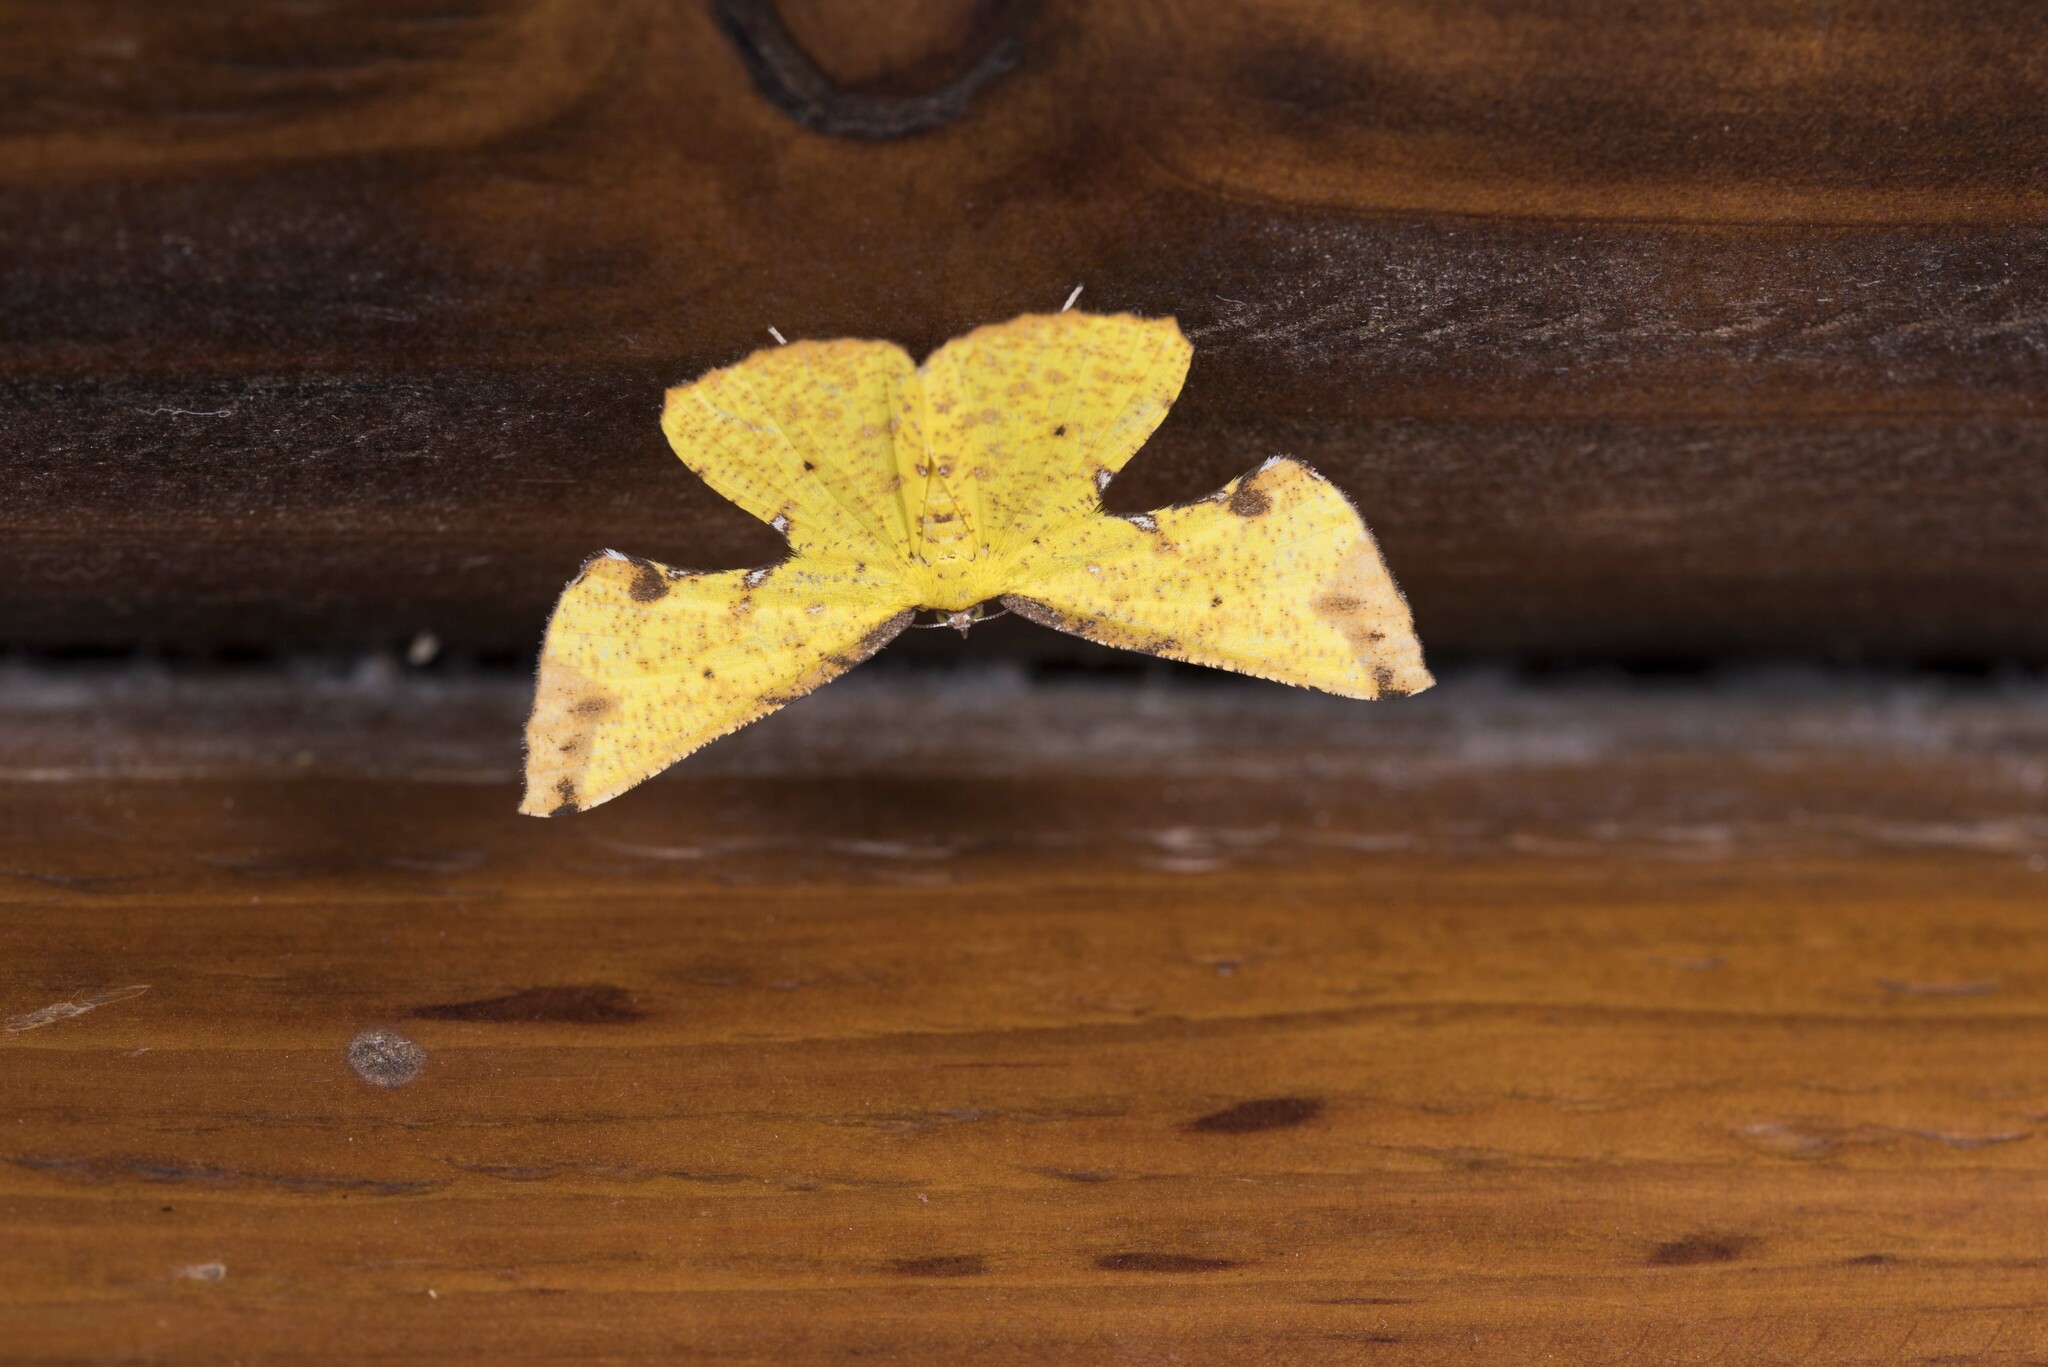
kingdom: Animalia
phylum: Arthropoda
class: Insecta
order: Lepidoptera
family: Geometridae
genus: Corymica
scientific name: Corymica arnearia
